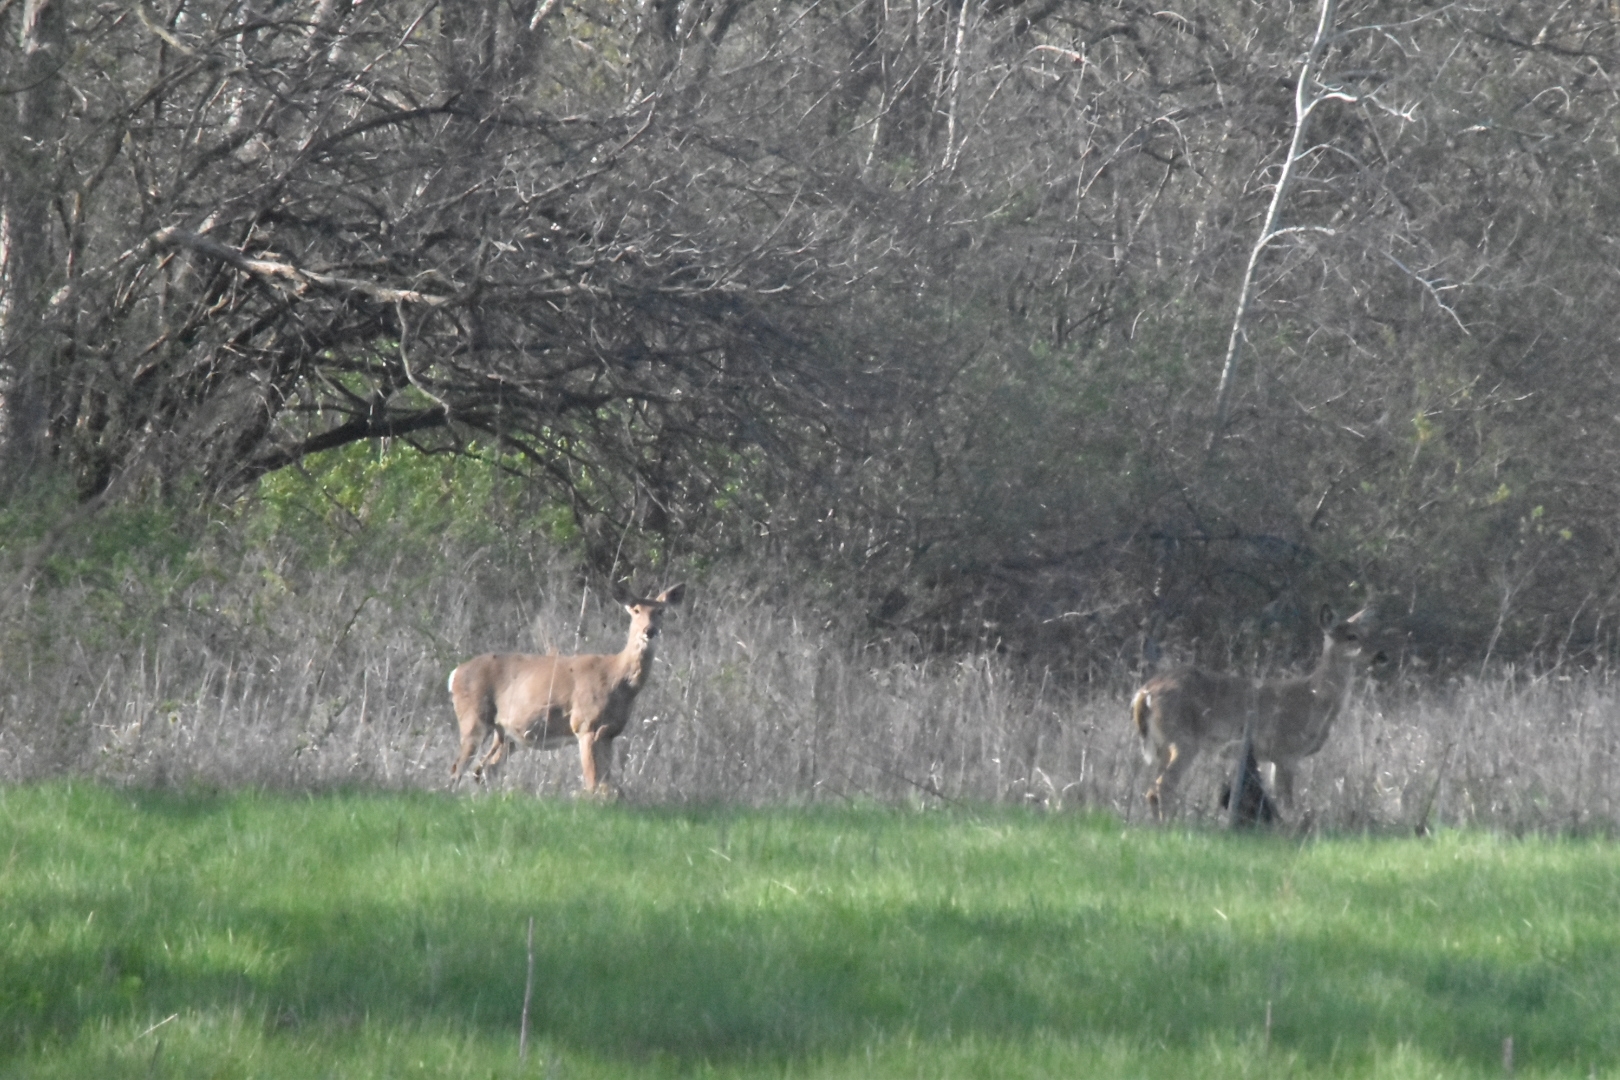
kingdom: Animalia
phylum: Chordata
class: Mammalia
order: Artiodactyla
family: Cervidae
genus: Odocoileus
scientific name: Odocoileus virginianus
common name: White-tailed deer
